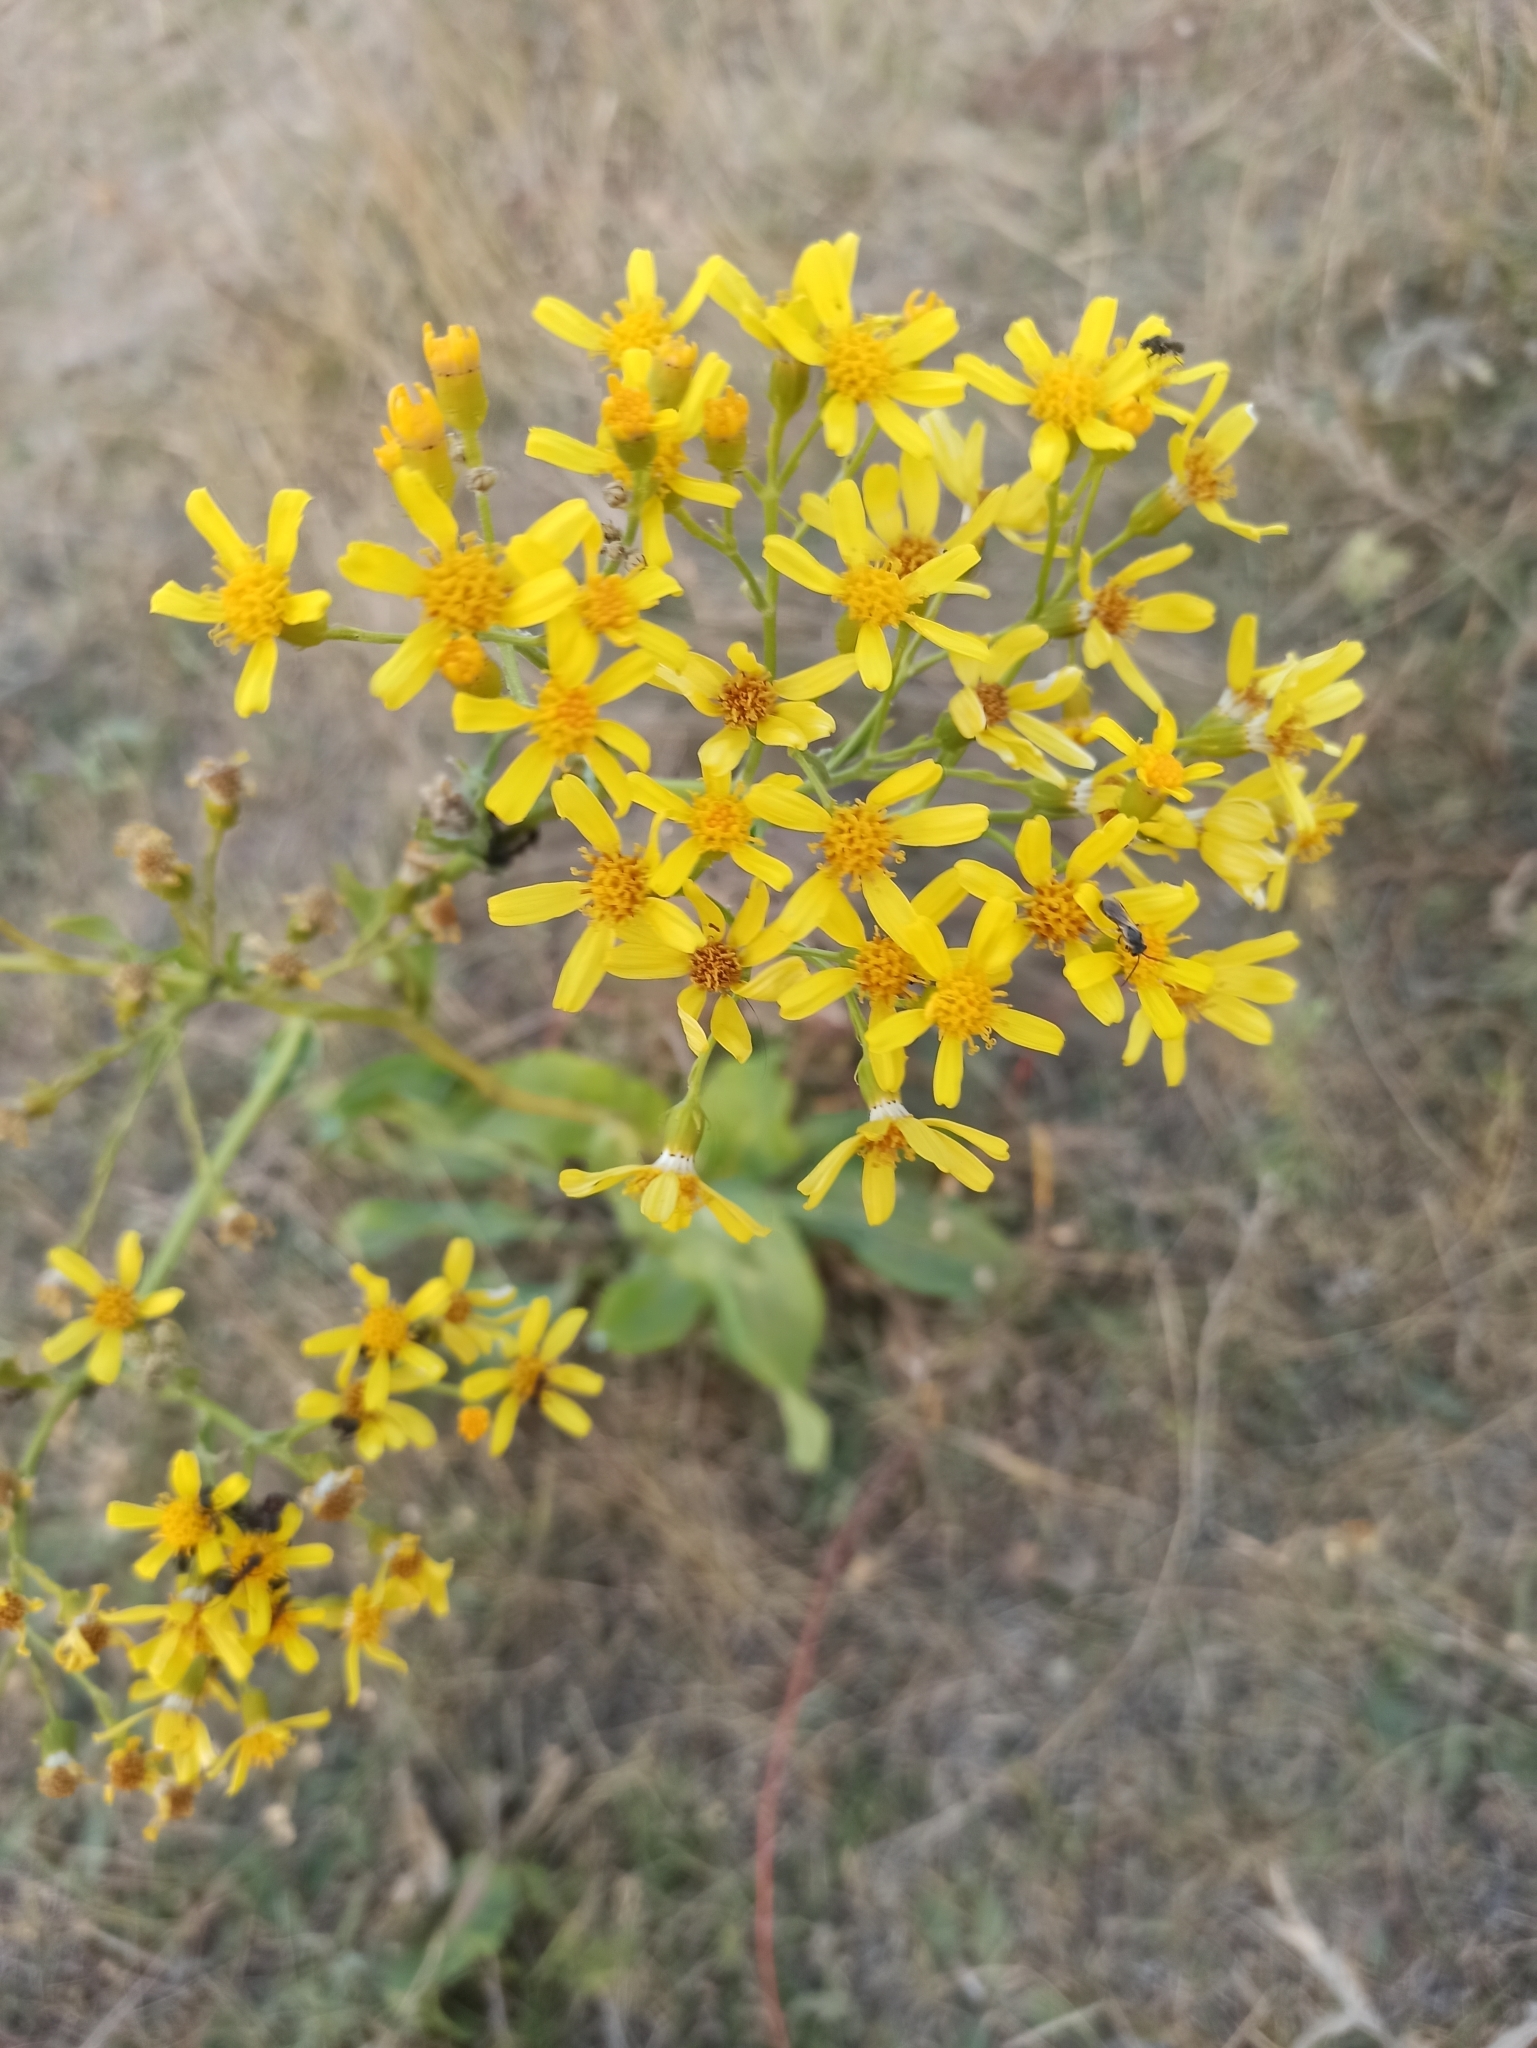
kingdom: Plantae
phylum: Tracheophyta
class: Magnoliopsida
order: Asterales
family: Asteraceae
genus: Senecio
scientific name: Senecio doria
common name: Golden ragwort
